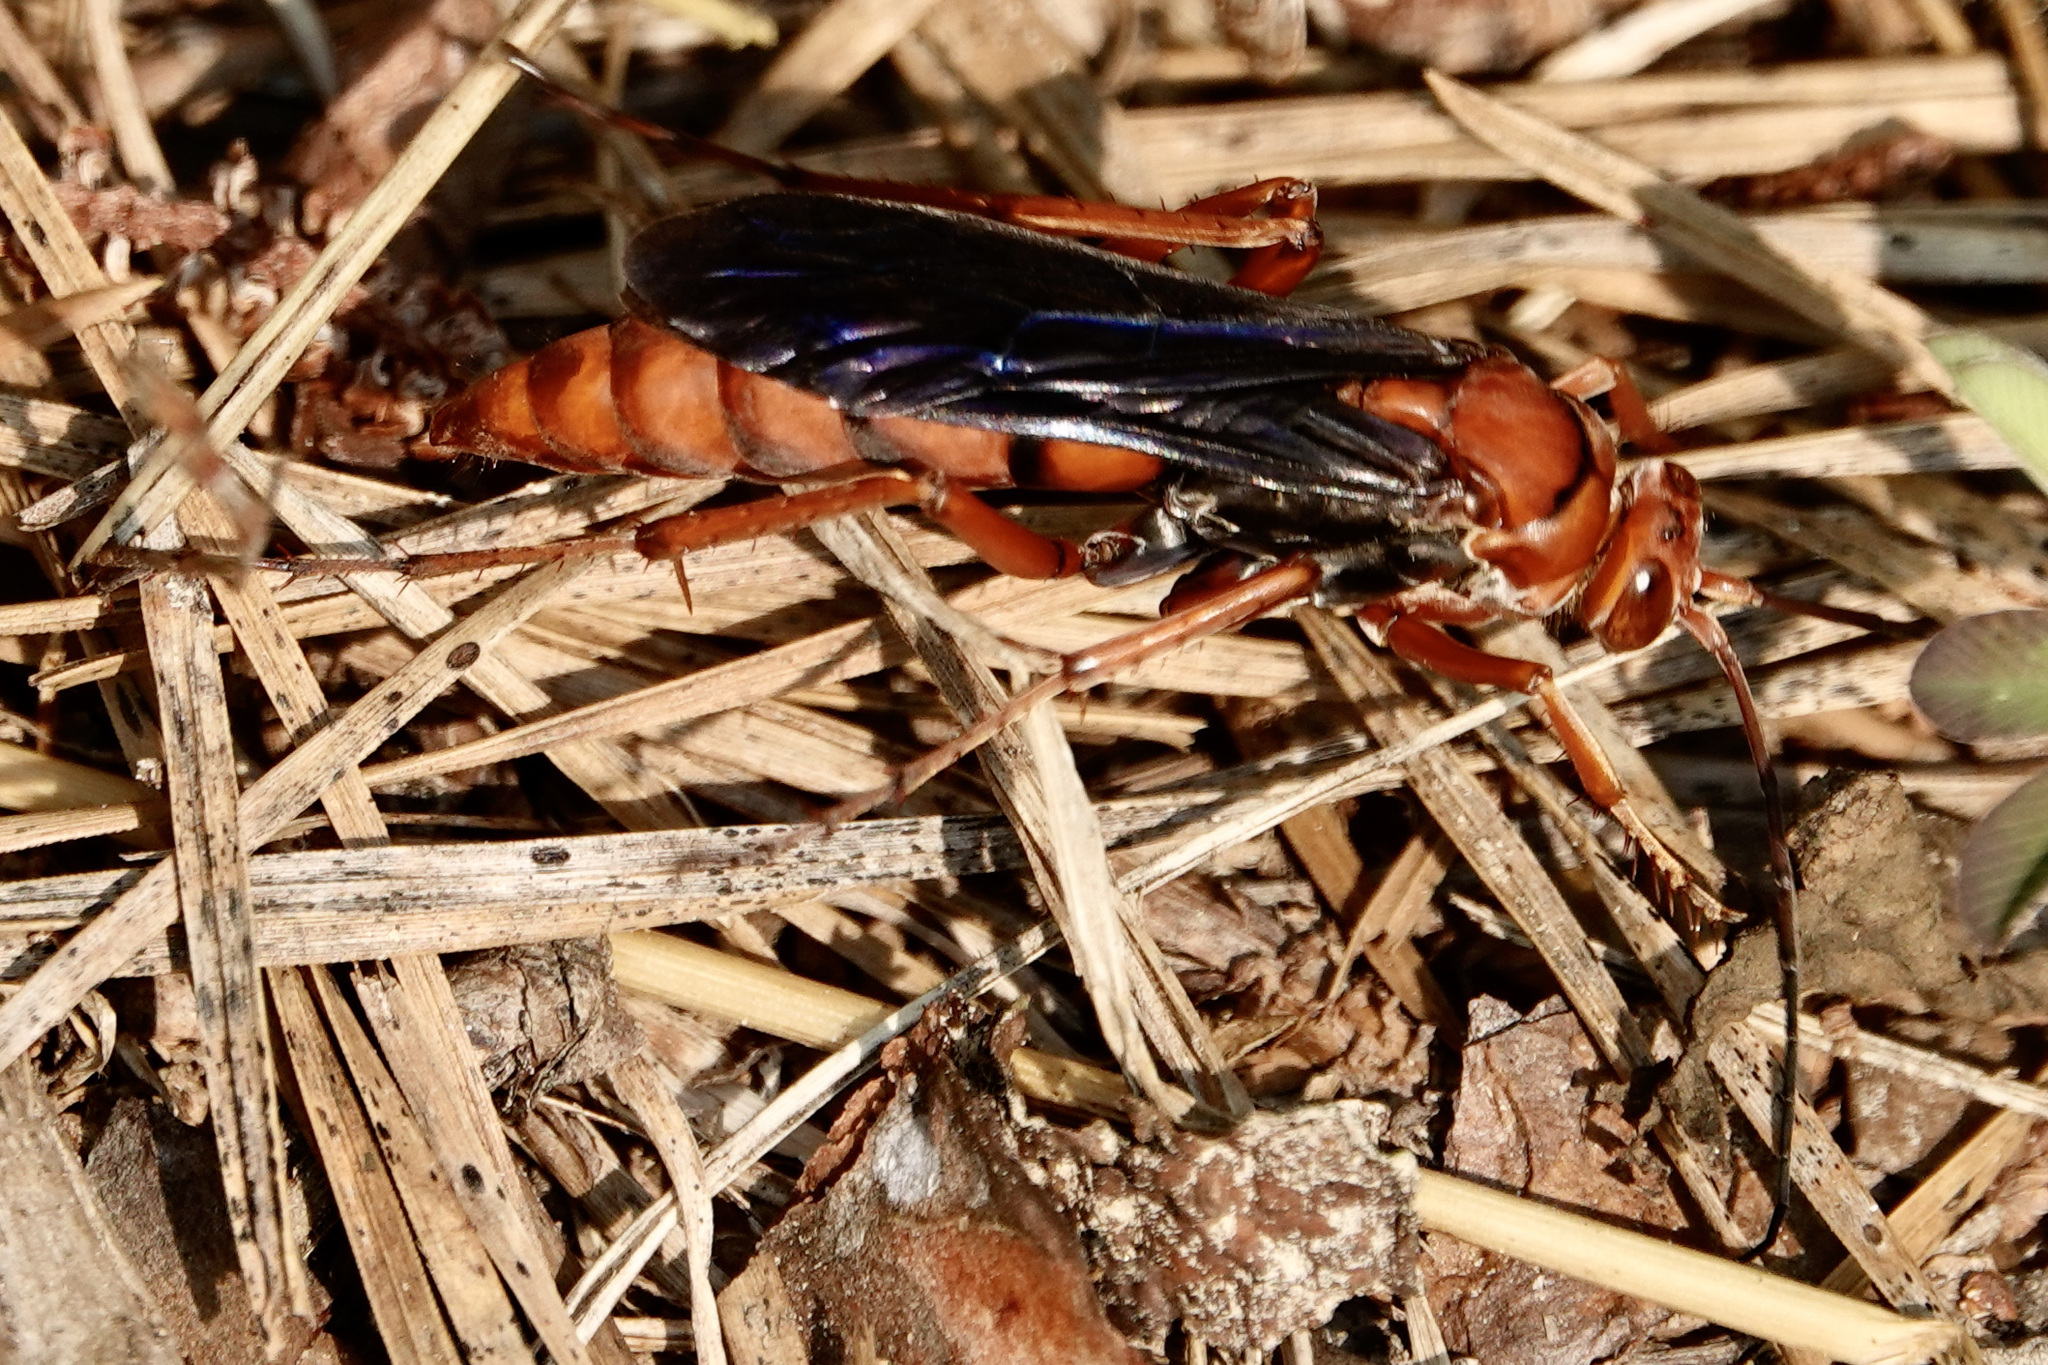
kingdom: Animalia
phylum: Arthropoda
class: Insecta
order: Hymenoptera
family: Pompilidae
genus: Tachypompilus
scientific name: Tachypompilus ferrugineus
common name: Rusty spider wasp
